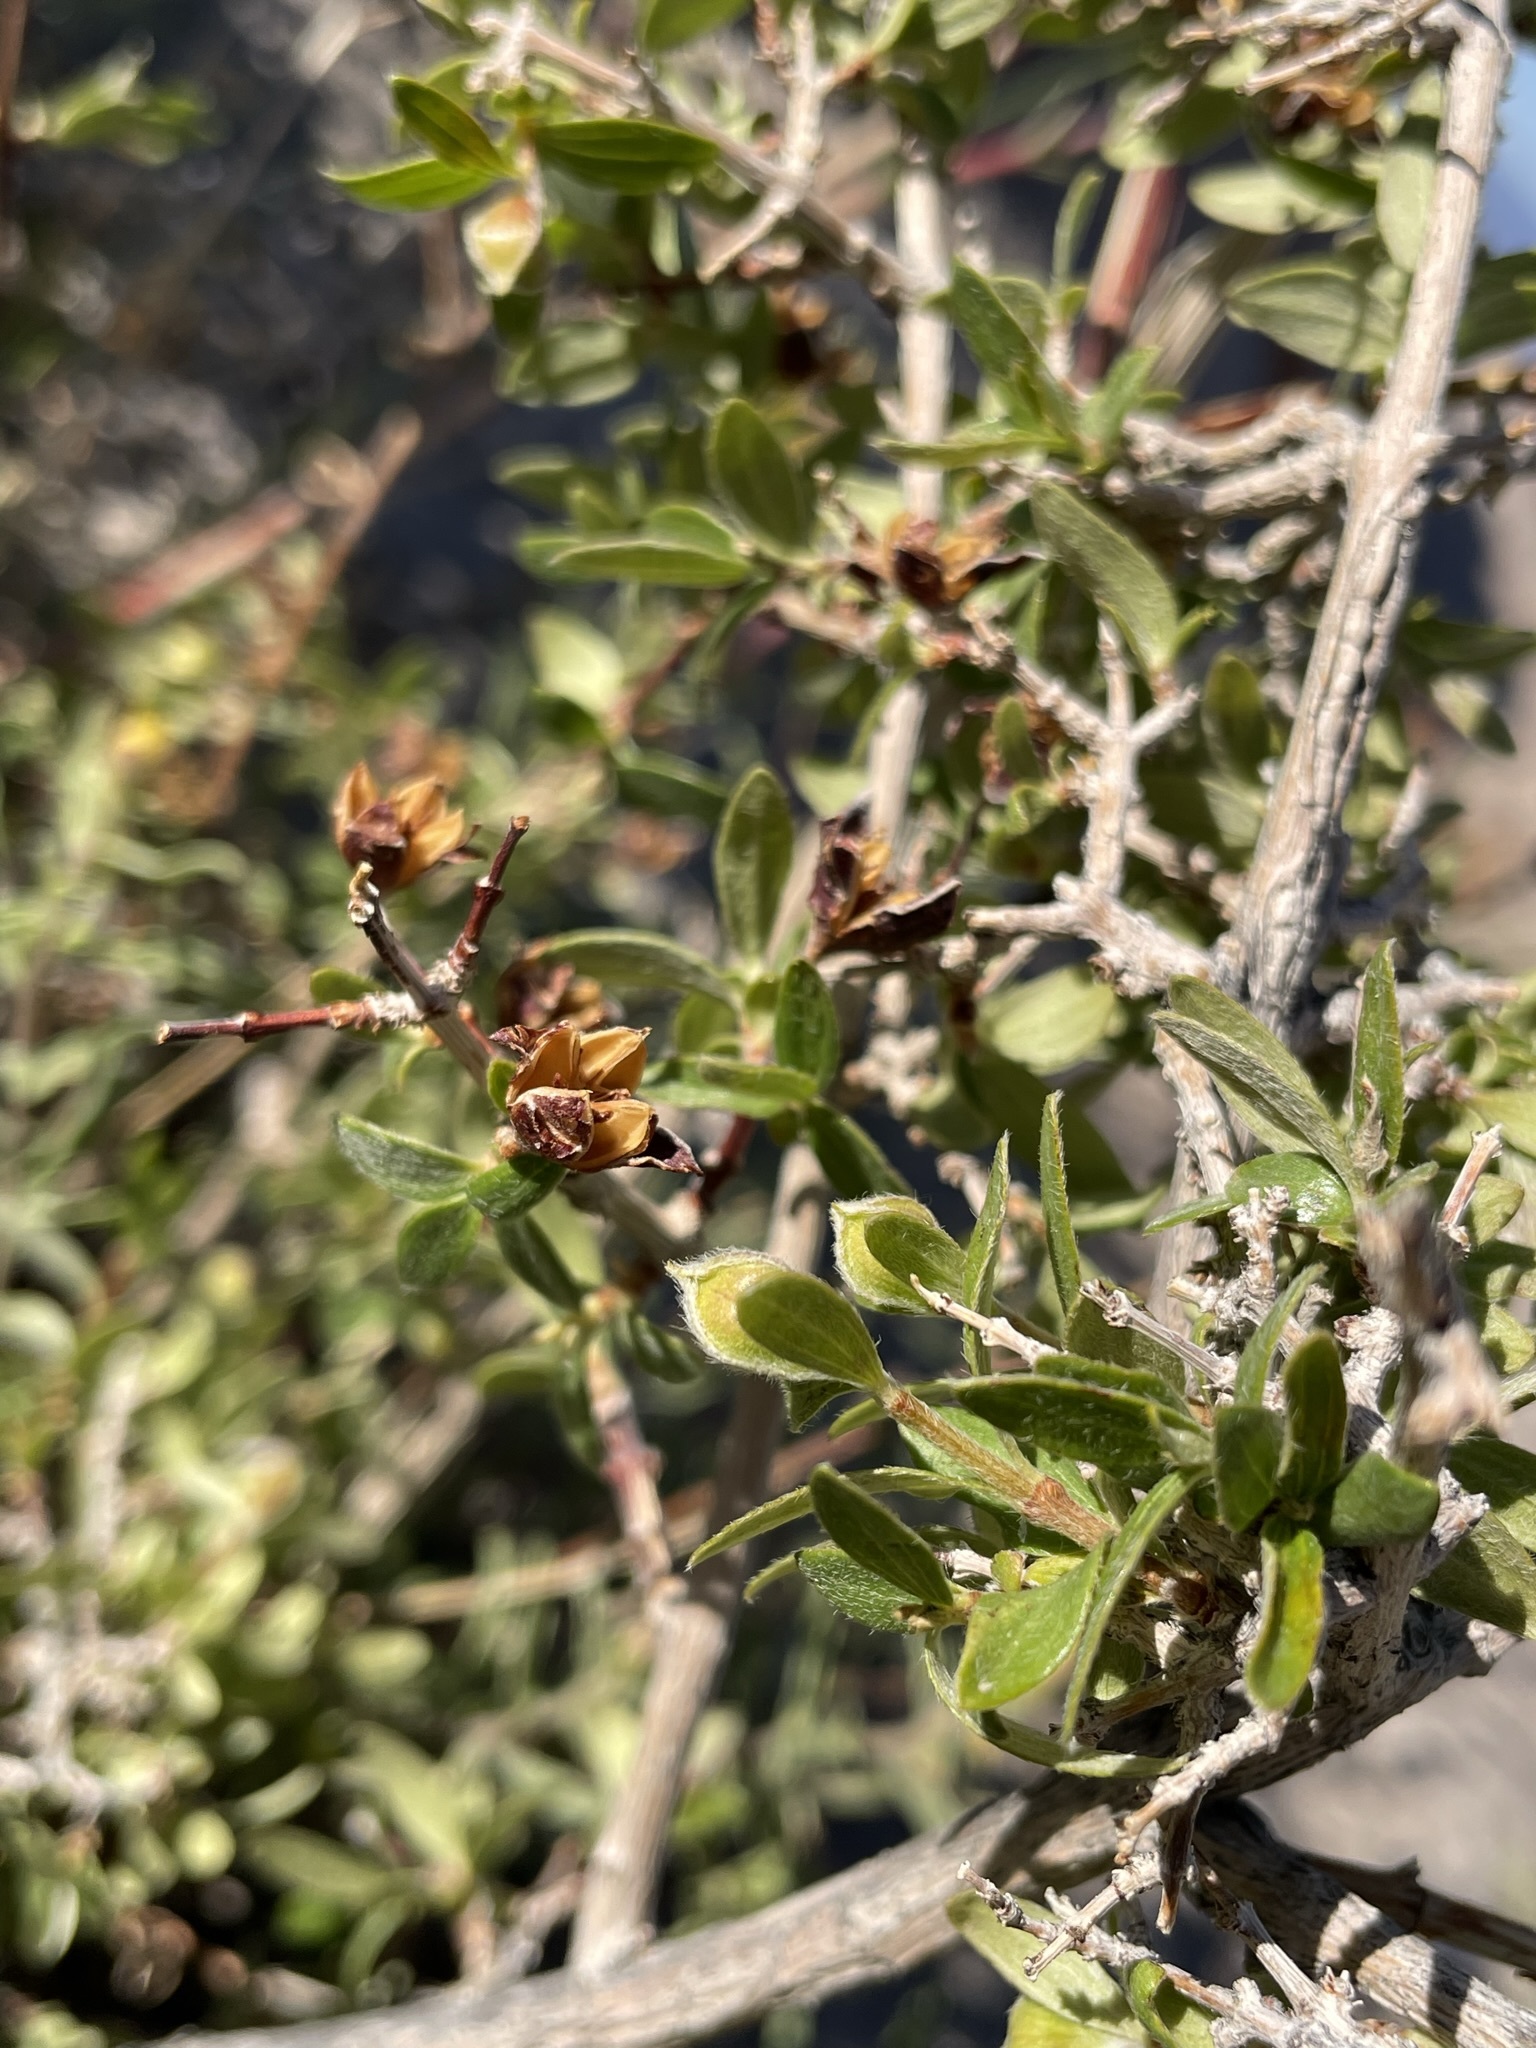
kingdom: Plantae
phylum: Tracheophyta
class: Magnoliopsida
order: Cornales
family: Hydrangeaceae
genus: Philadelphus
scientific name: Philadelphus microphyllus
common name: Desert mock orange
